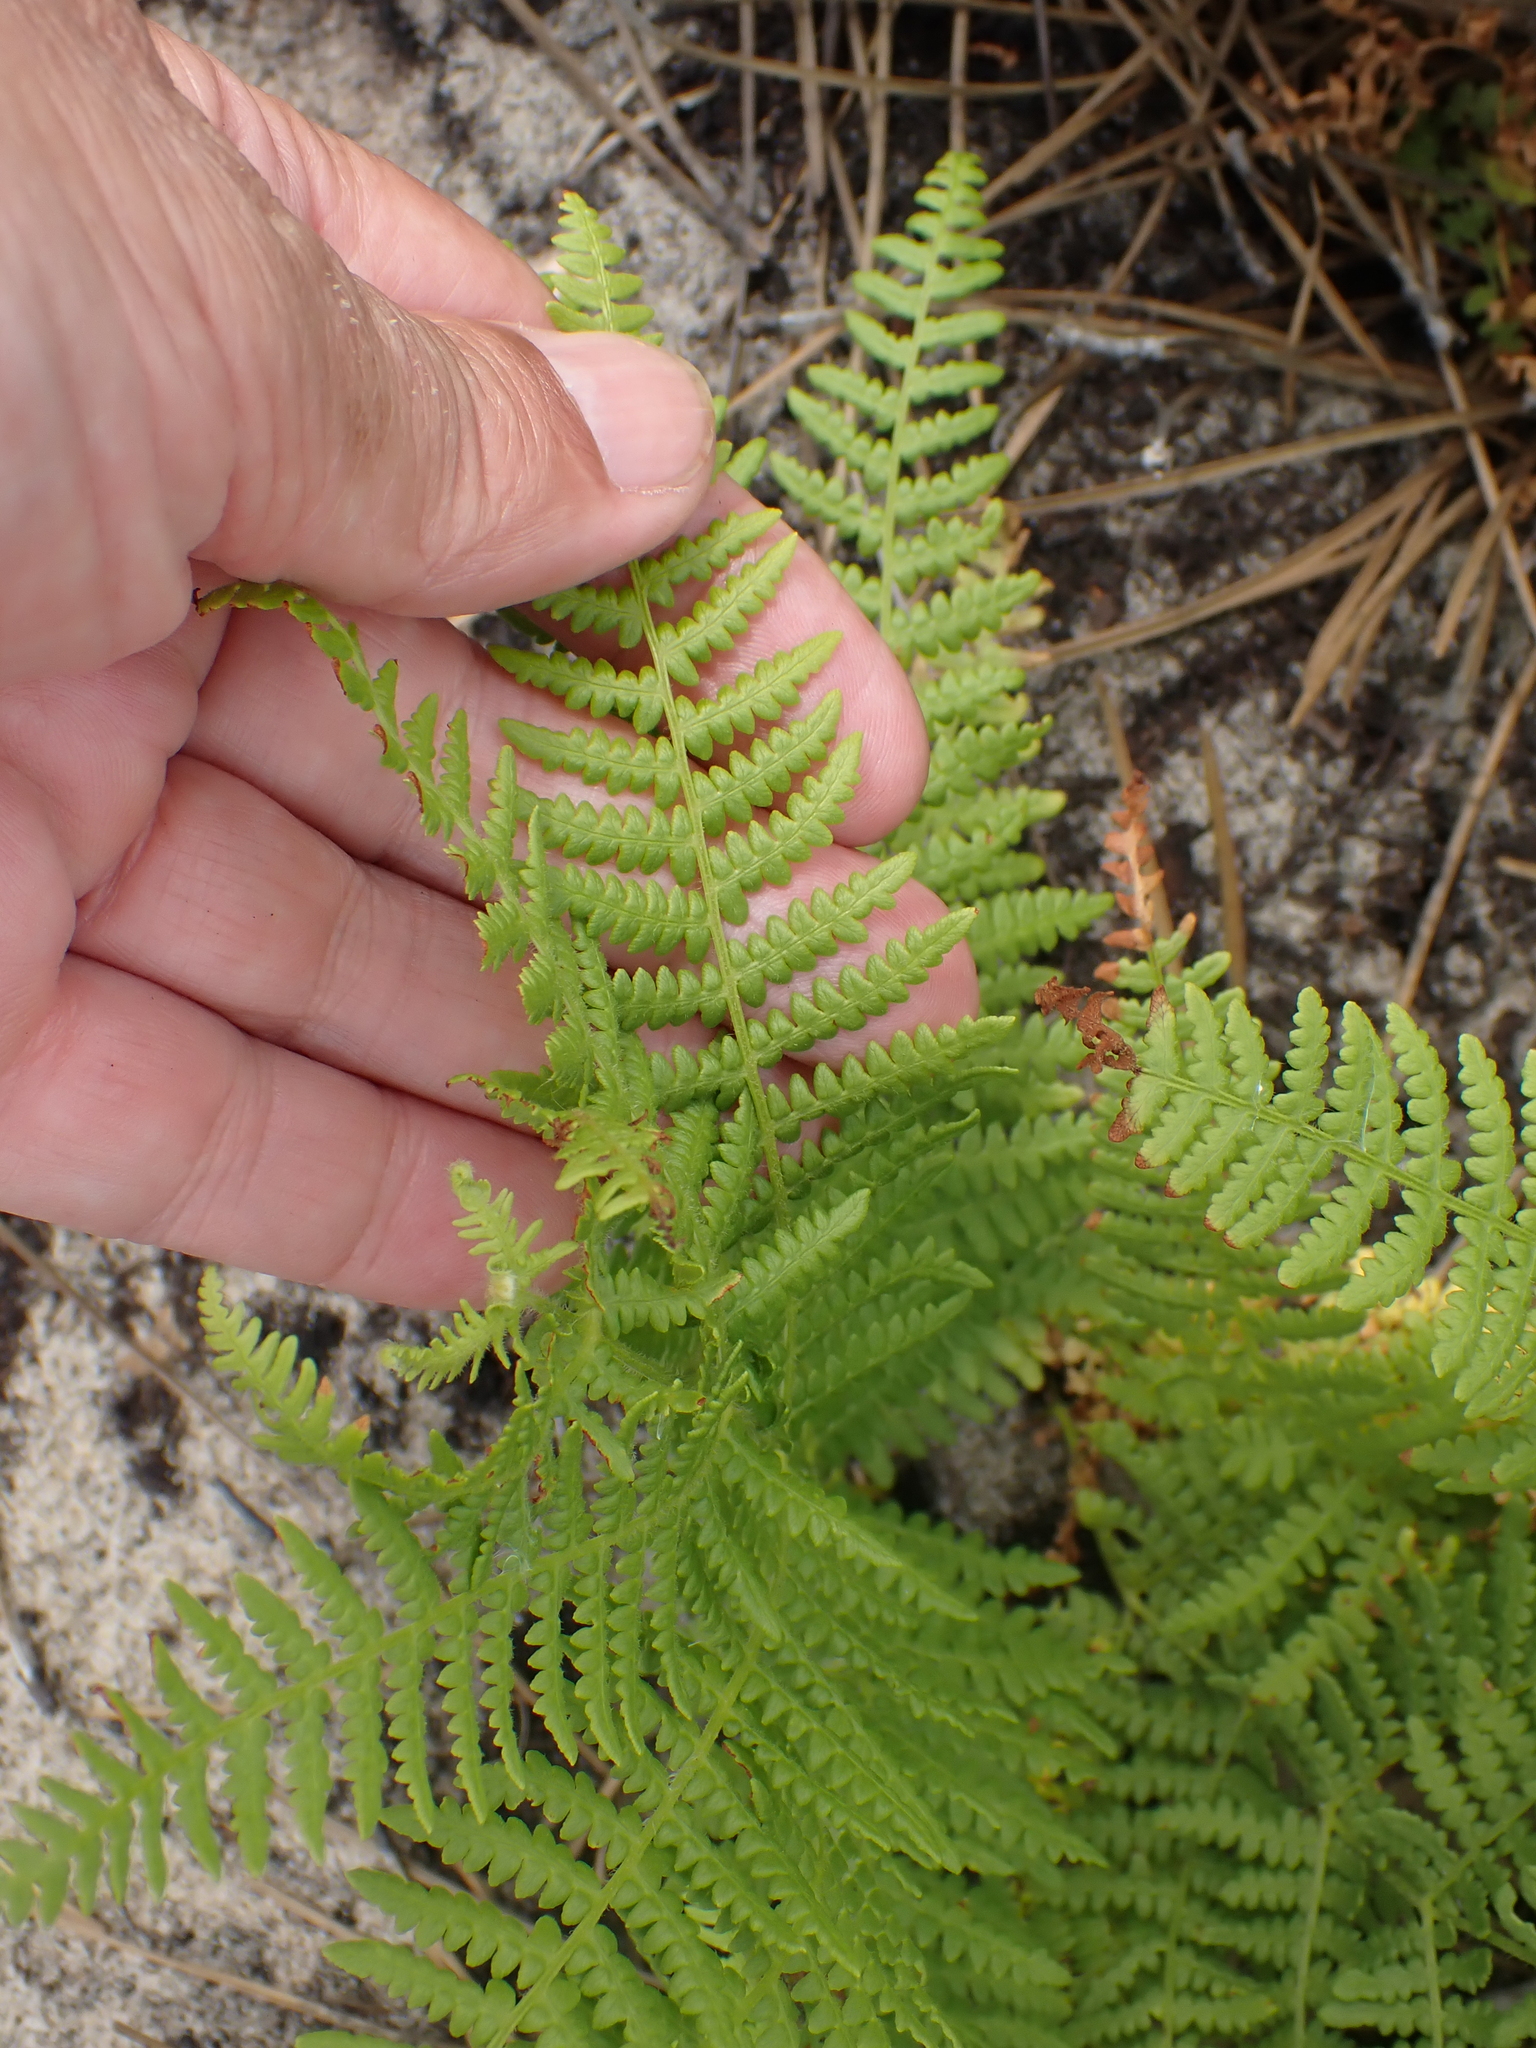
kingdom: Plantae
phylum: Tracheophyta
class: Polypodiopsida
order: Polypodiales
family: Dennstaedtiaceae
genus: Pteridium
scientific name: Pteridium aquilinum
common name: Bracken
